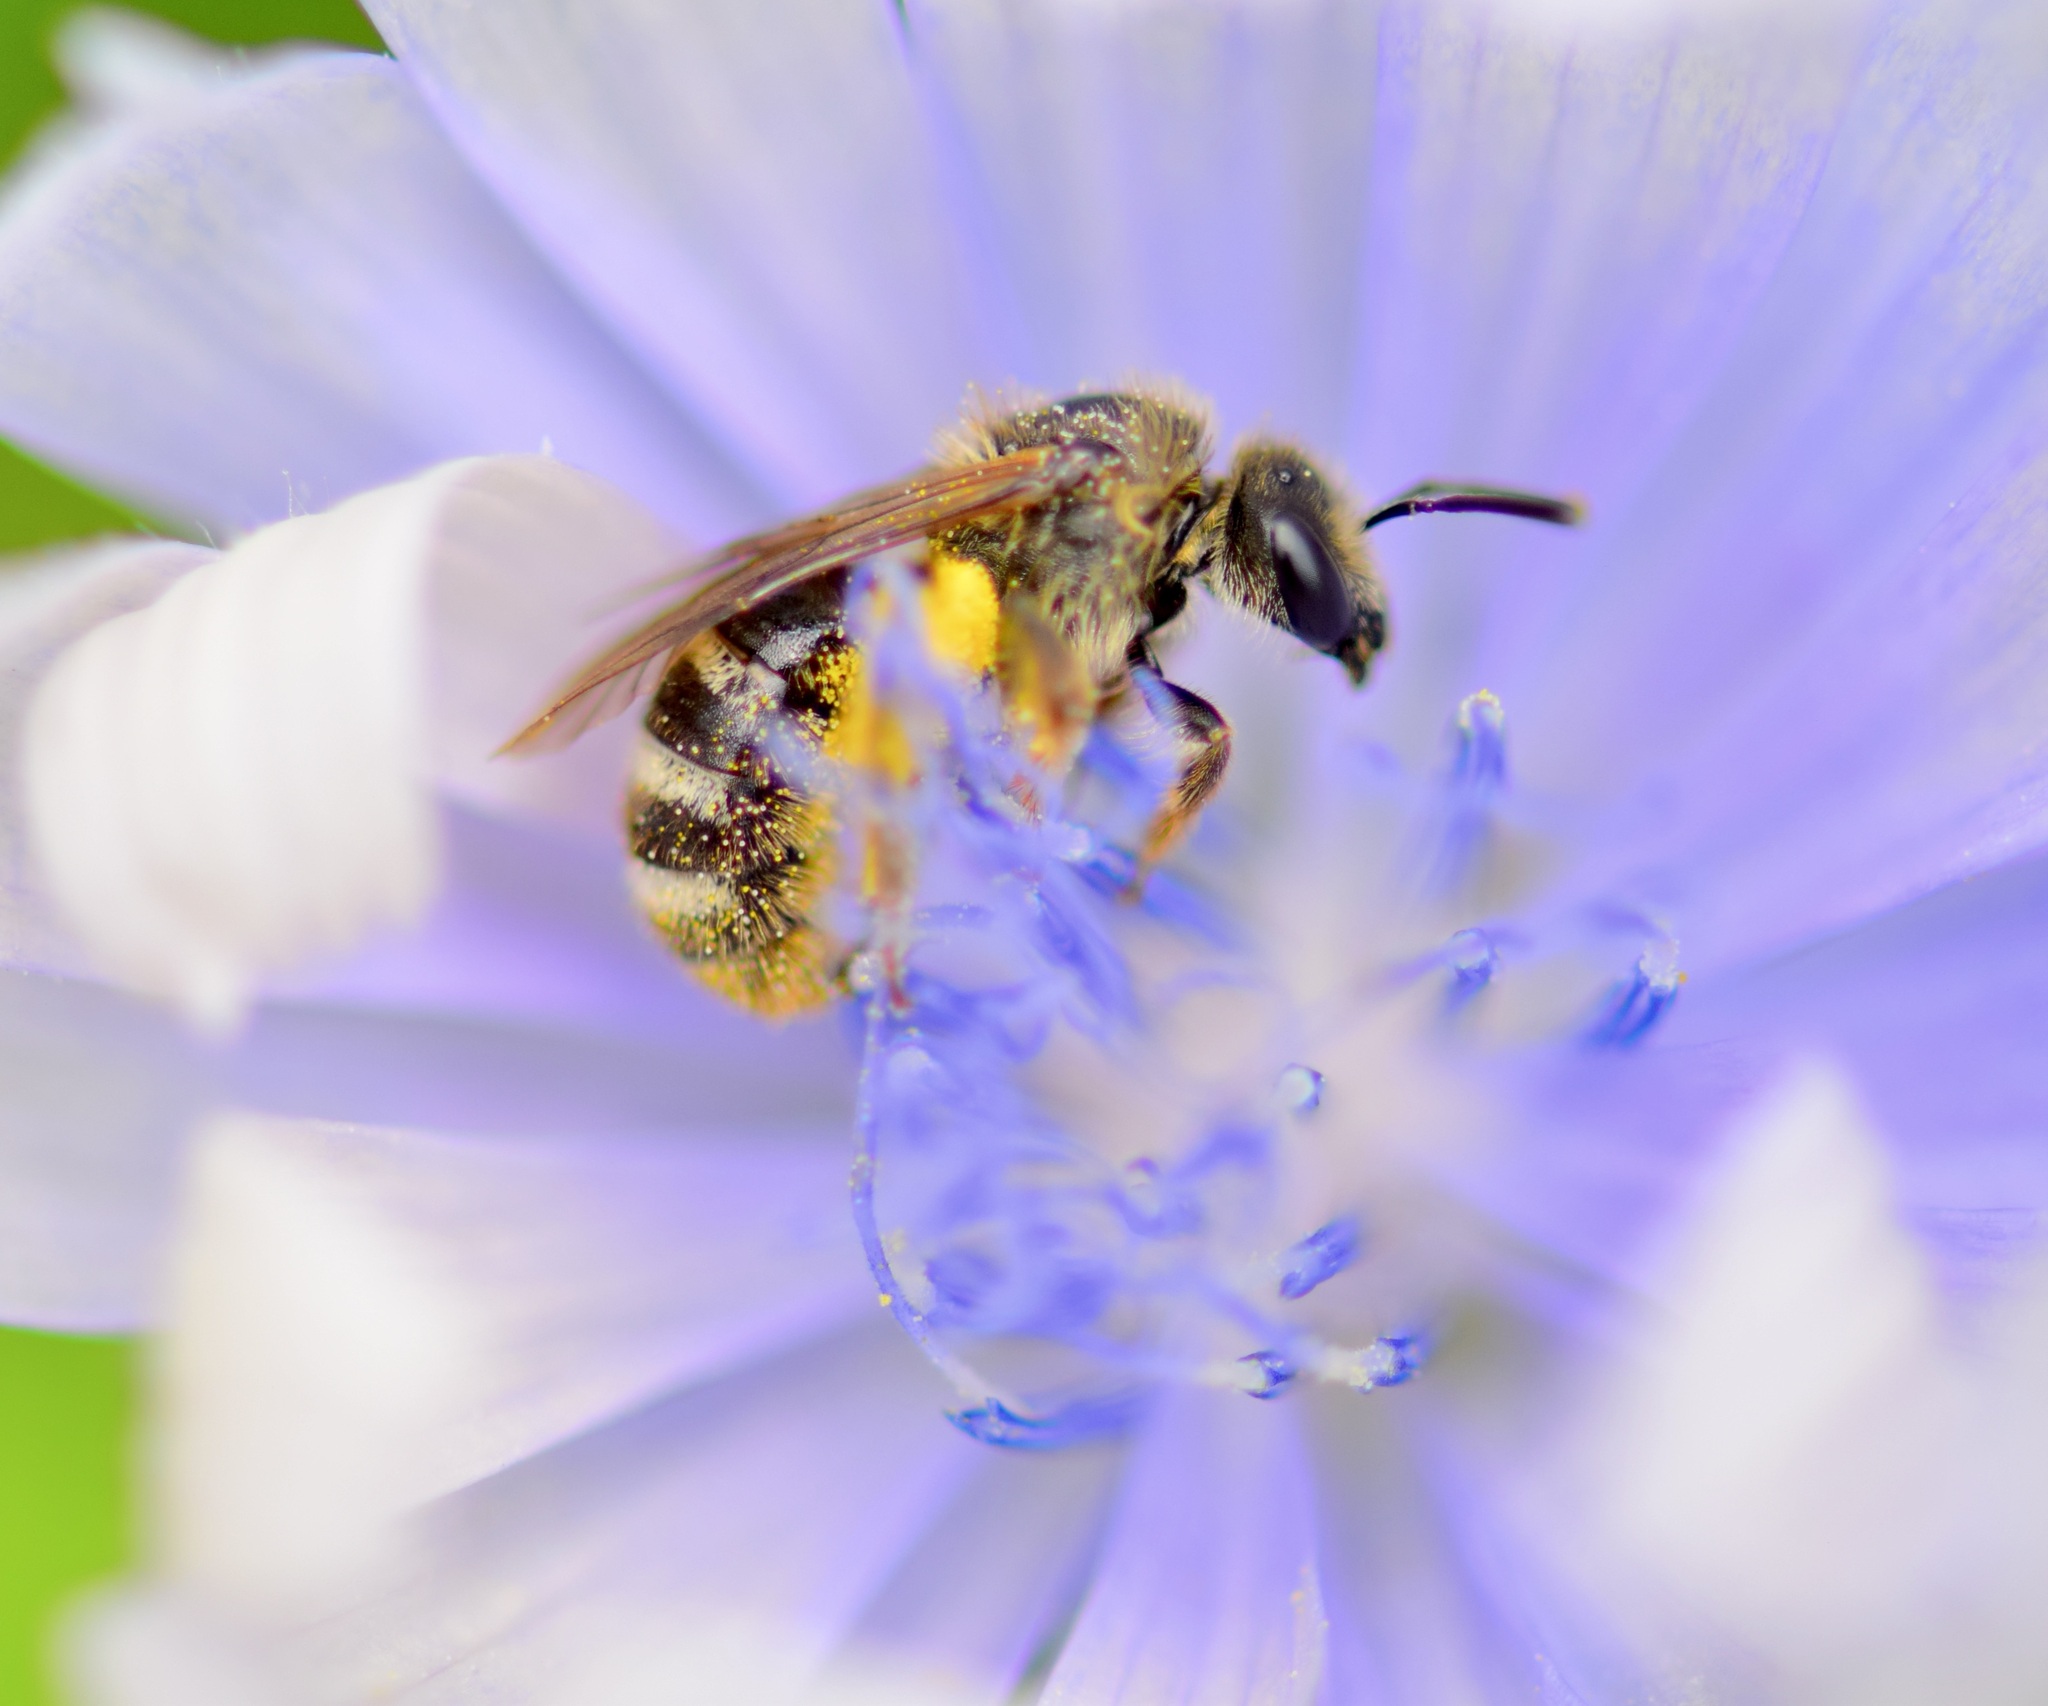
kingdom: Animalia
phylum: Arthropoda
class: Insecta
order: Hymenoptera
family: Halictidae
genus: Lasioglossum
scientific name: Lasioglossum leucozonium
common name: White-zoned furrow bee
